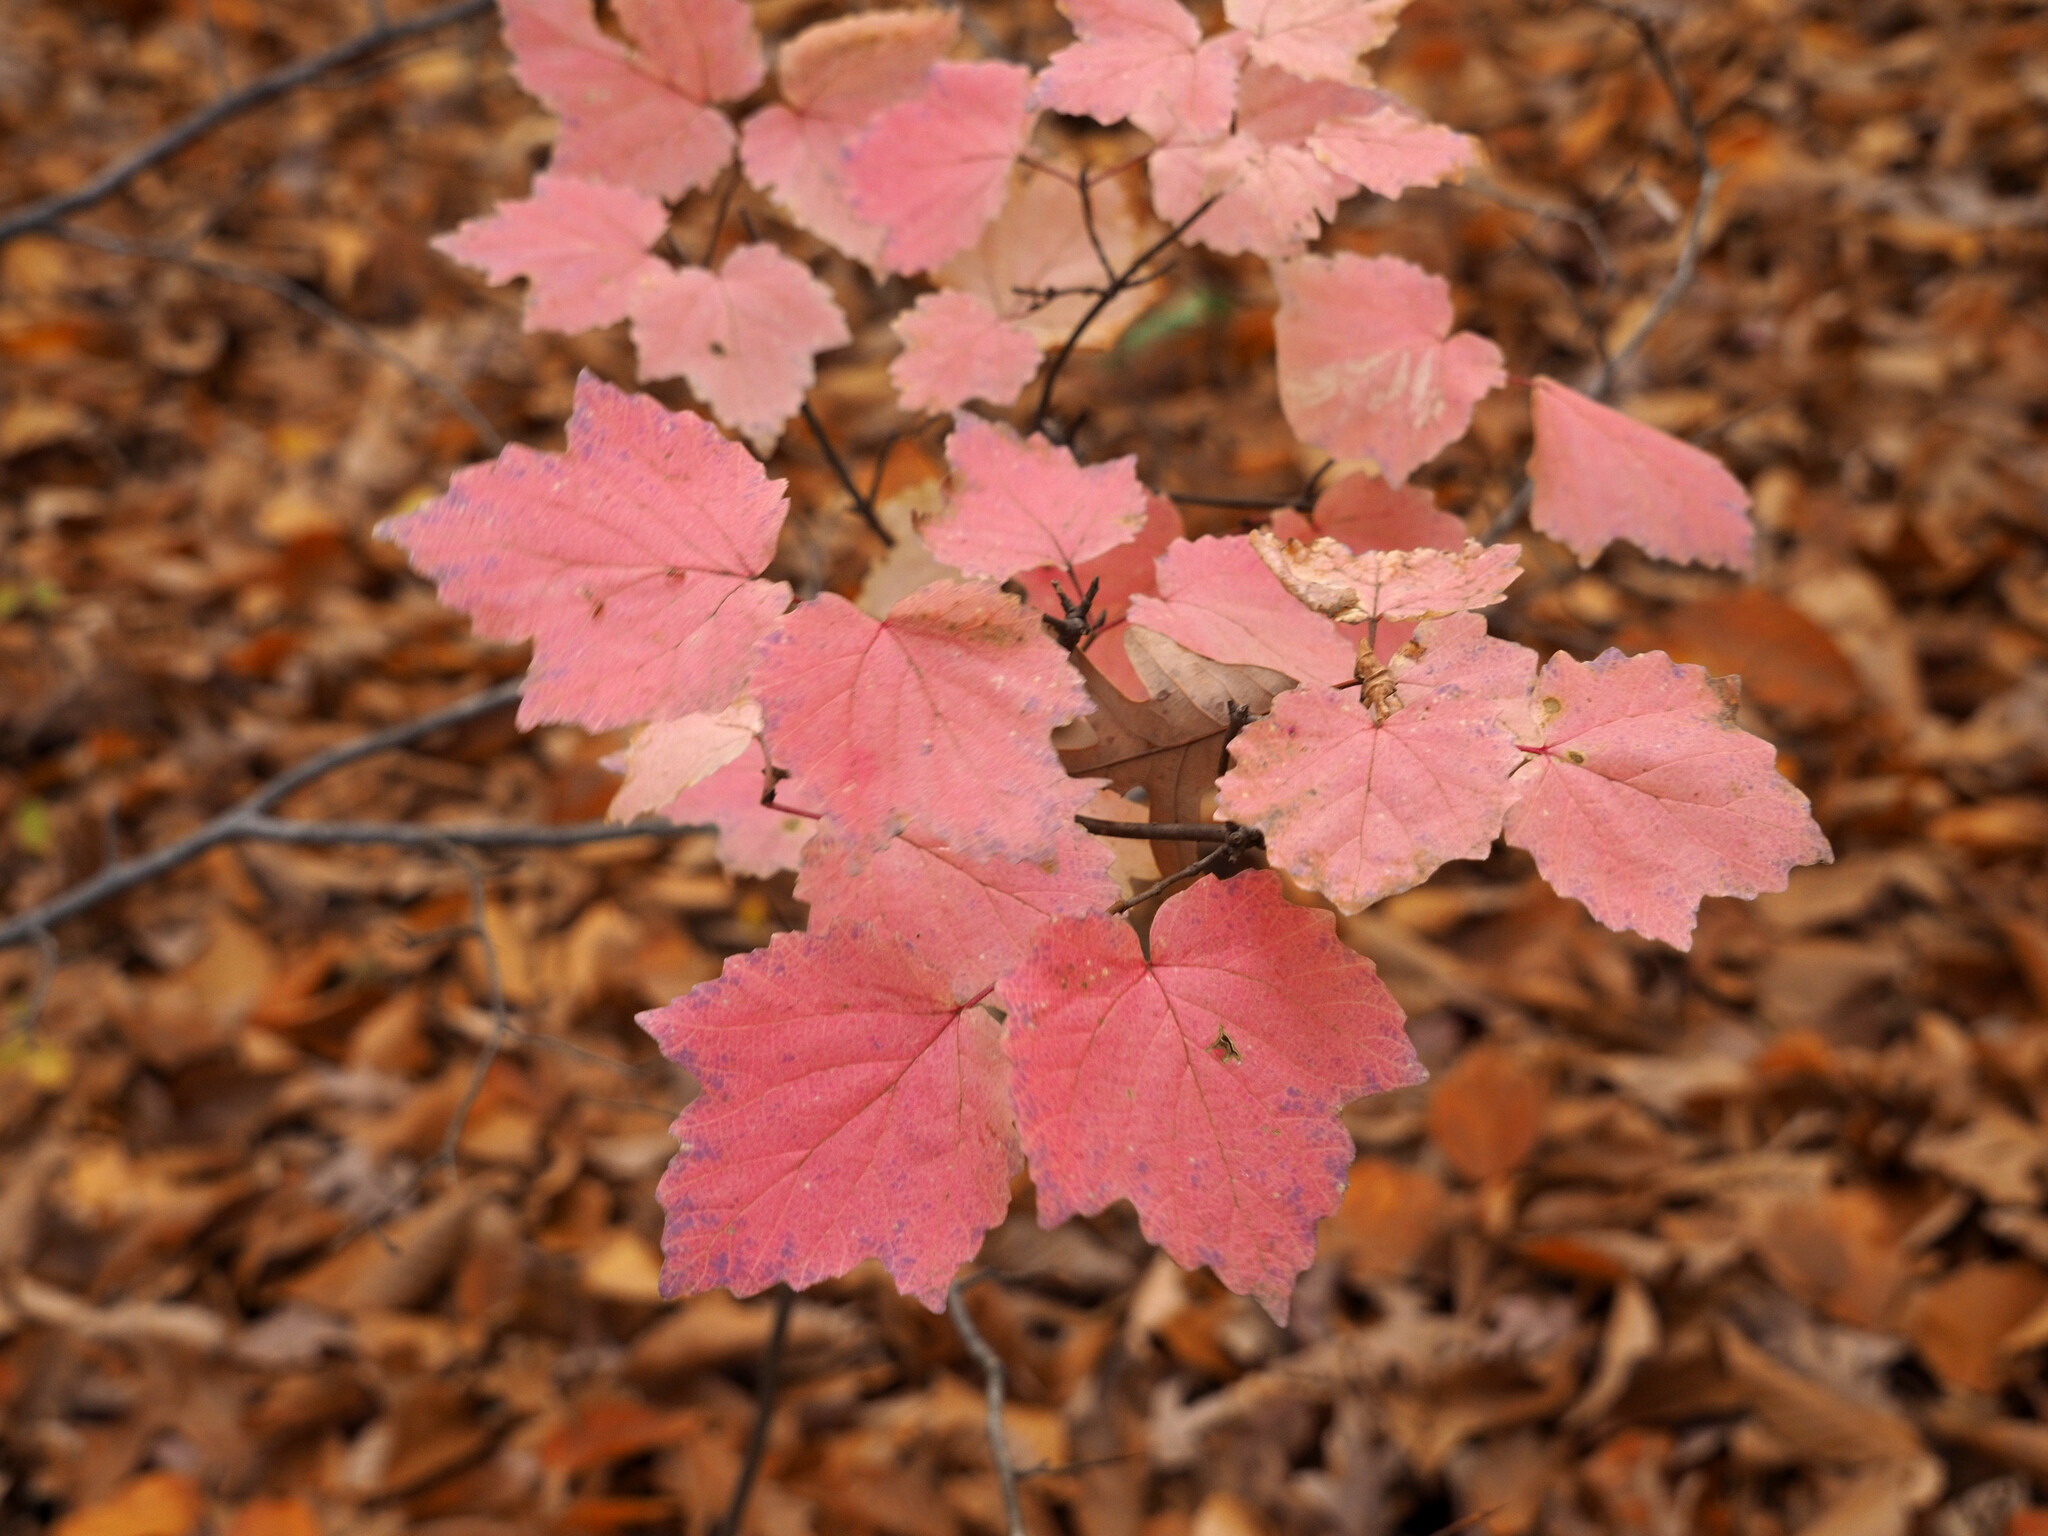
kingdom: Plantae
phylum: Tracheophyta
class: Magnoliopsida
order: Dipsacales
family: Viburnaceae
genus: Viburnum
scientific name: Viburnum acerifolium
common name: Dockmackie
